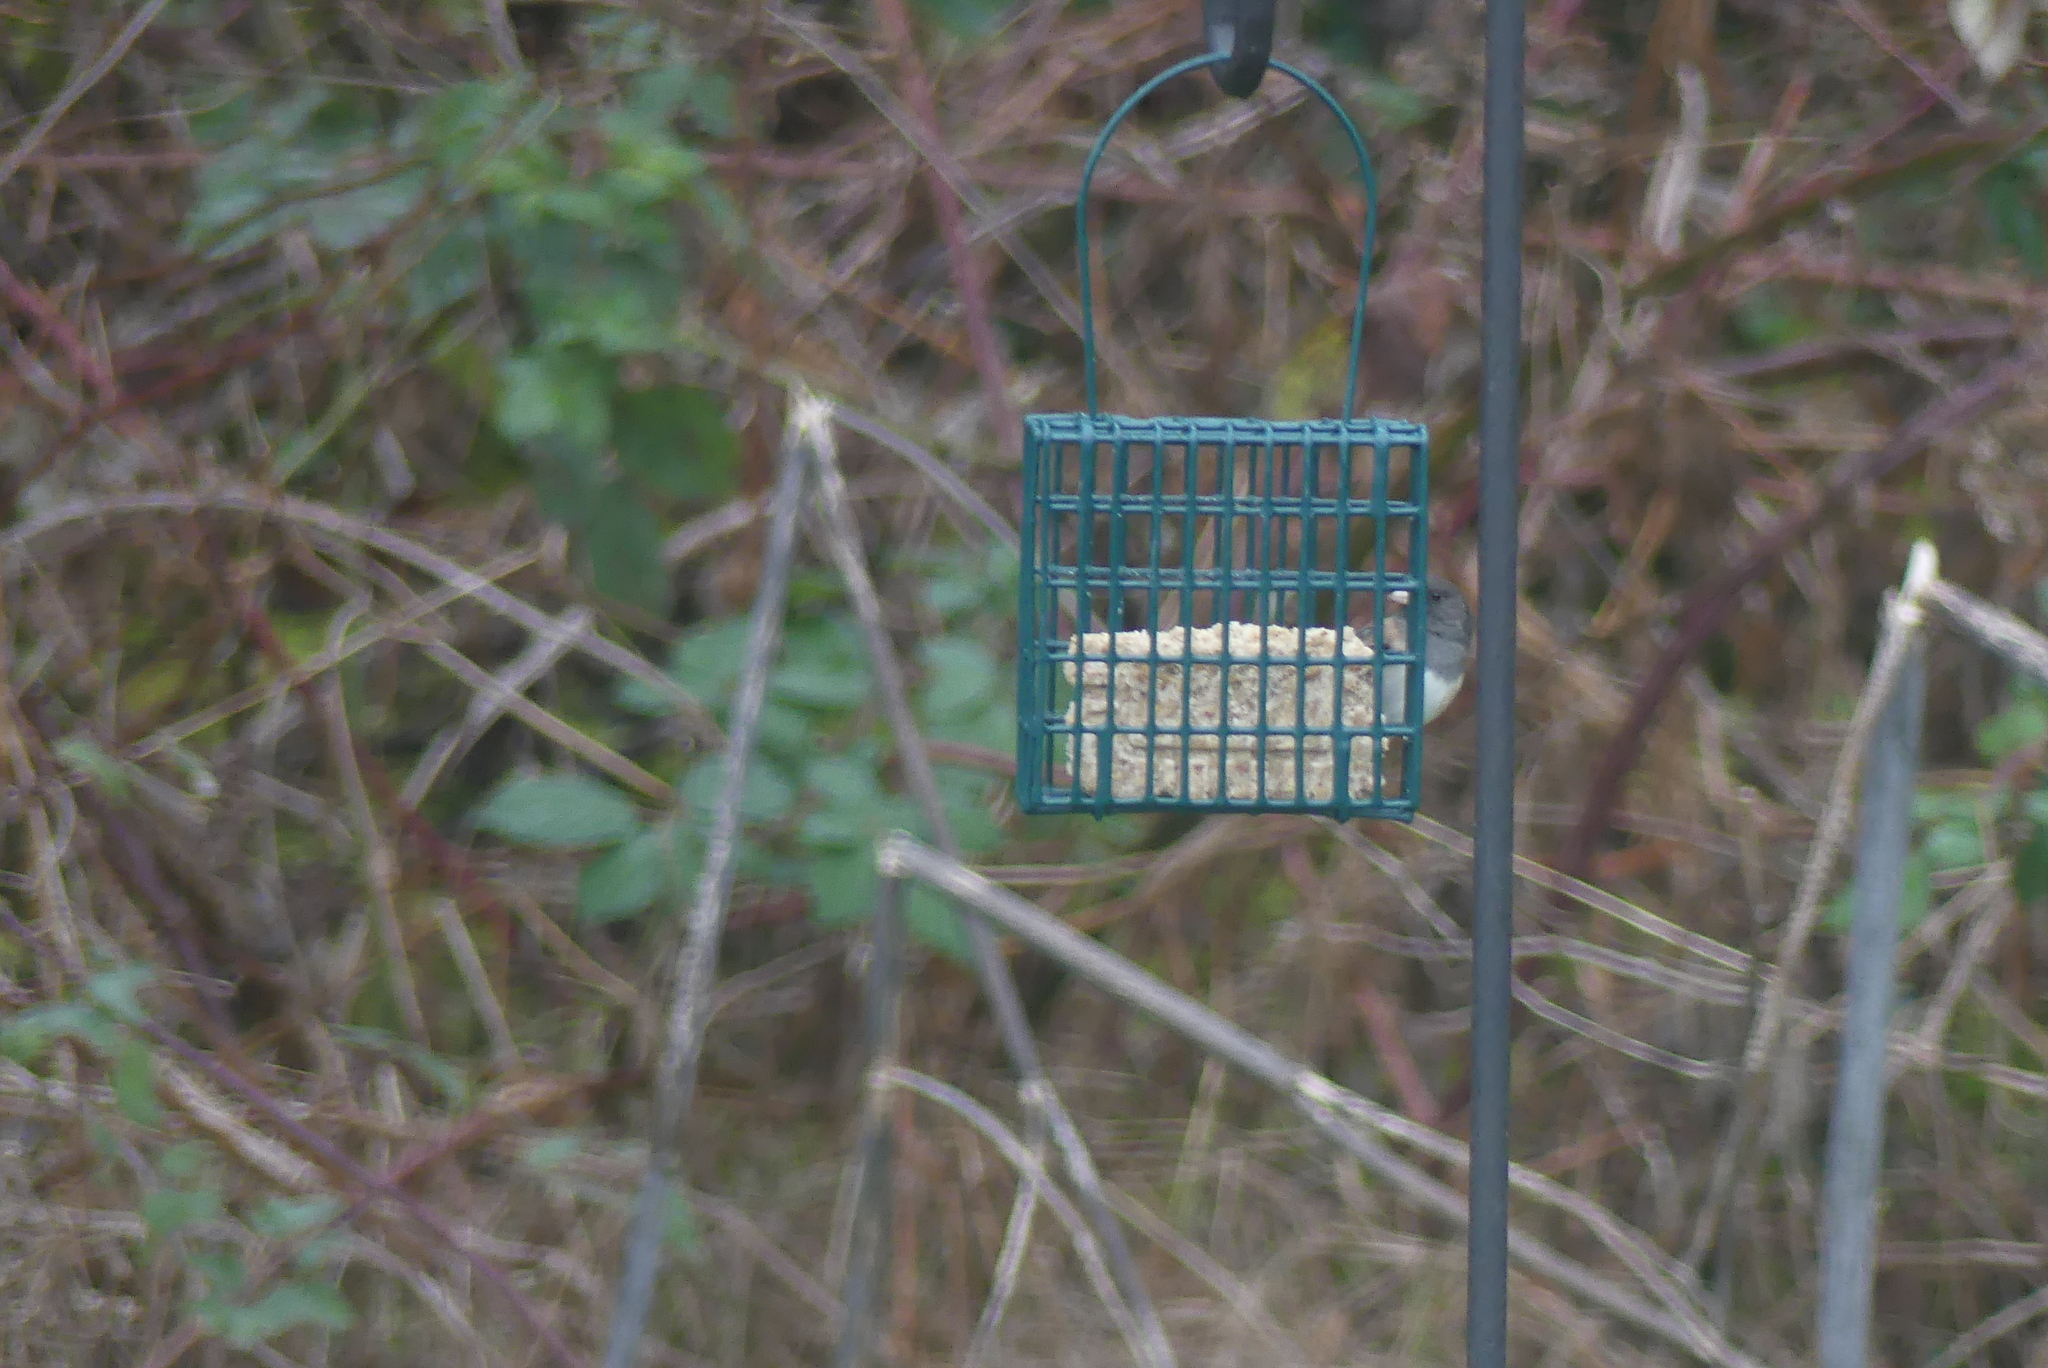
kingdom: Animalia
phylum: Chordata
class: Aves
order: Passeriformes
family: Passerellidae
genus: Junco
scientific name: Junco hyemalis
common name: Dark-eyed junco
